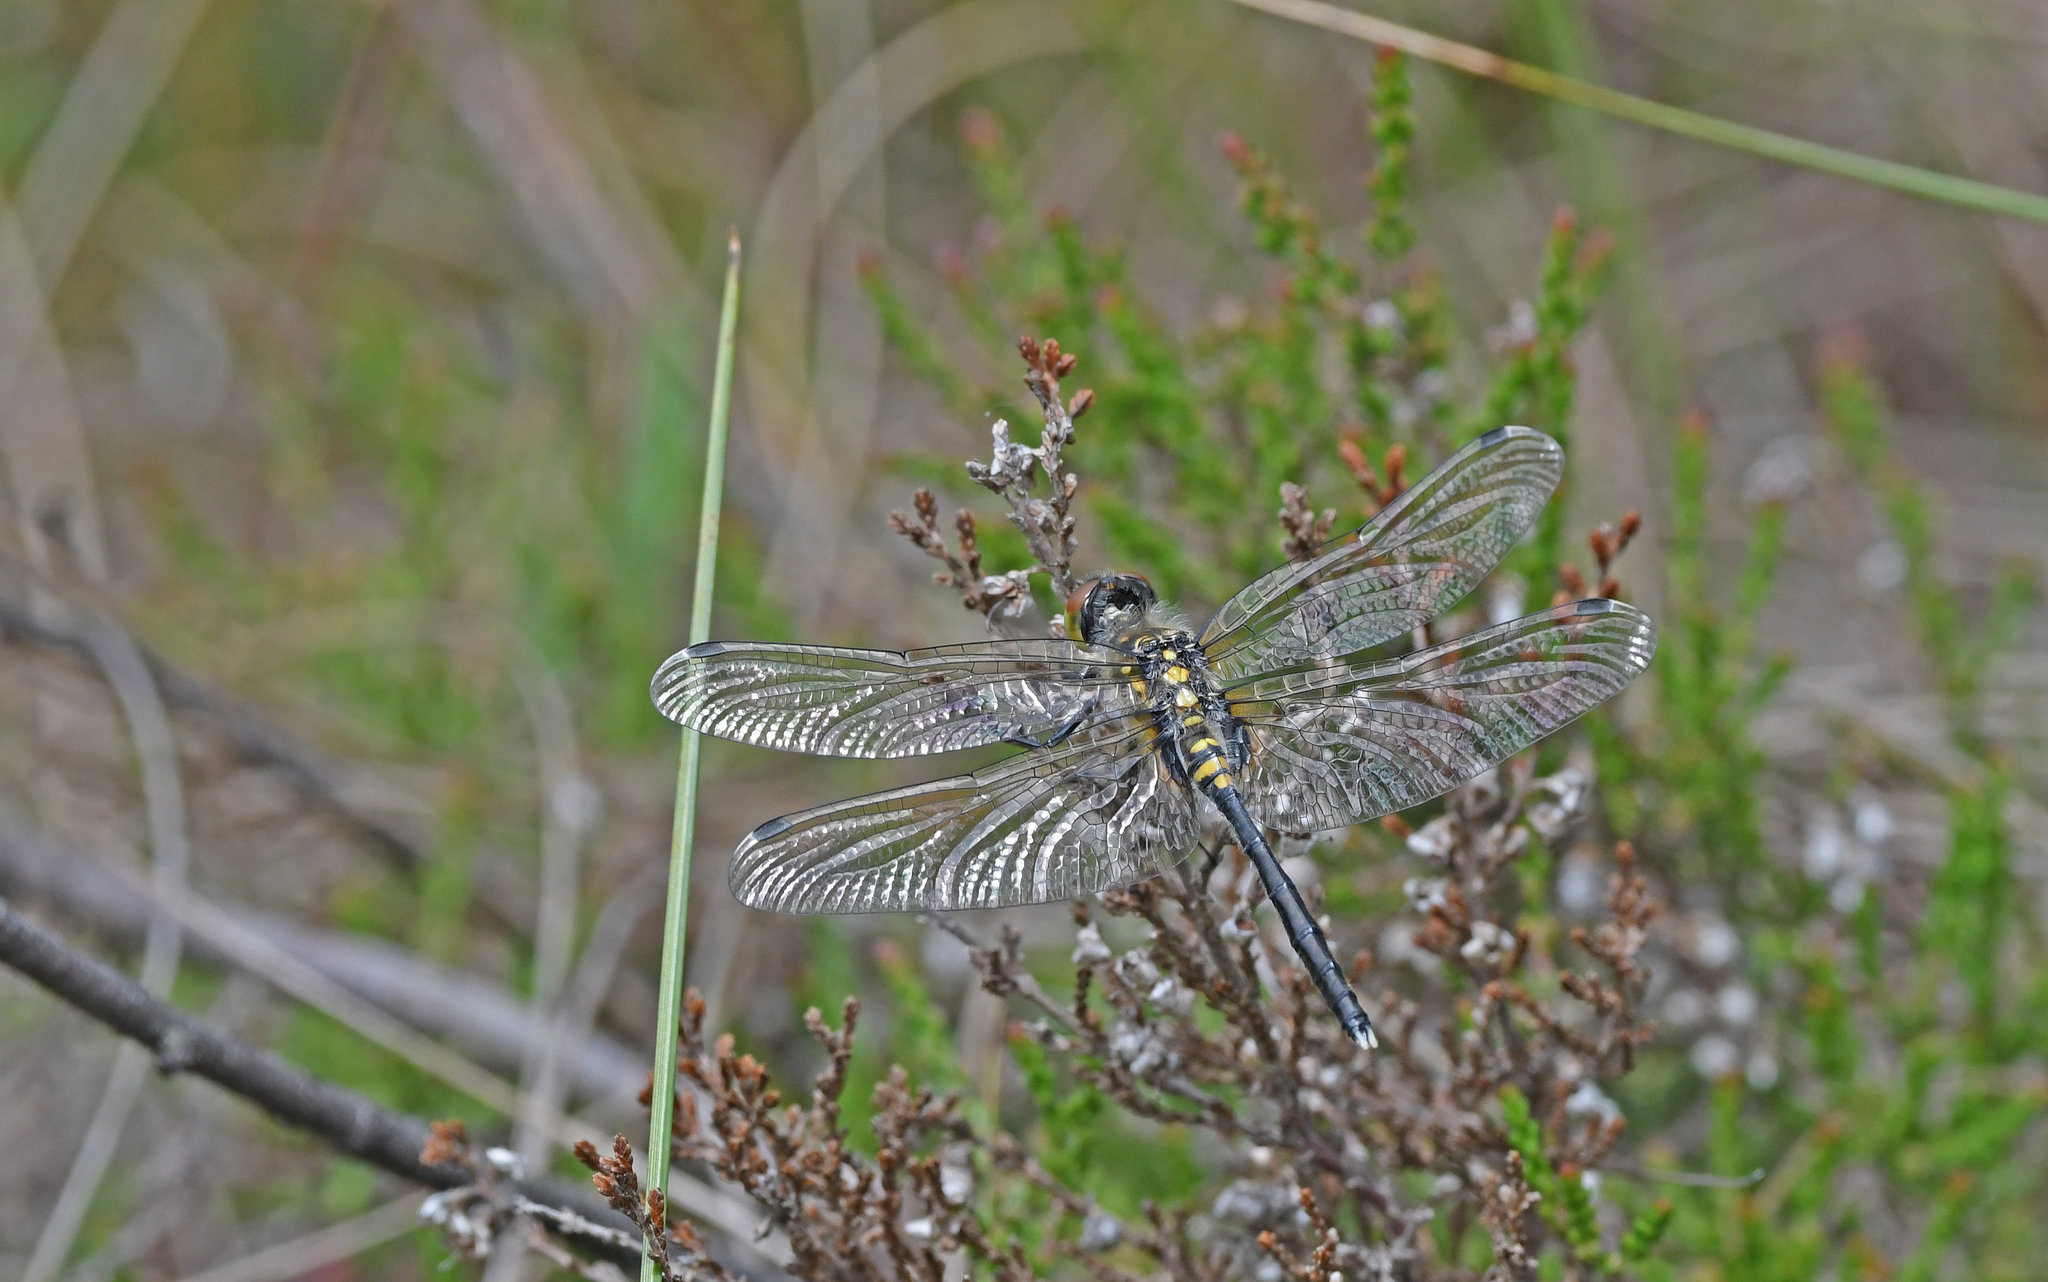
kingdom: Animalia
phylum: Arthropoda
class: Insecta
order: Odonata
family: Libellulidae
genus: Leucorrhinia
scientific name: Leucorrhinia albifrons
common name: Dark whiteface
